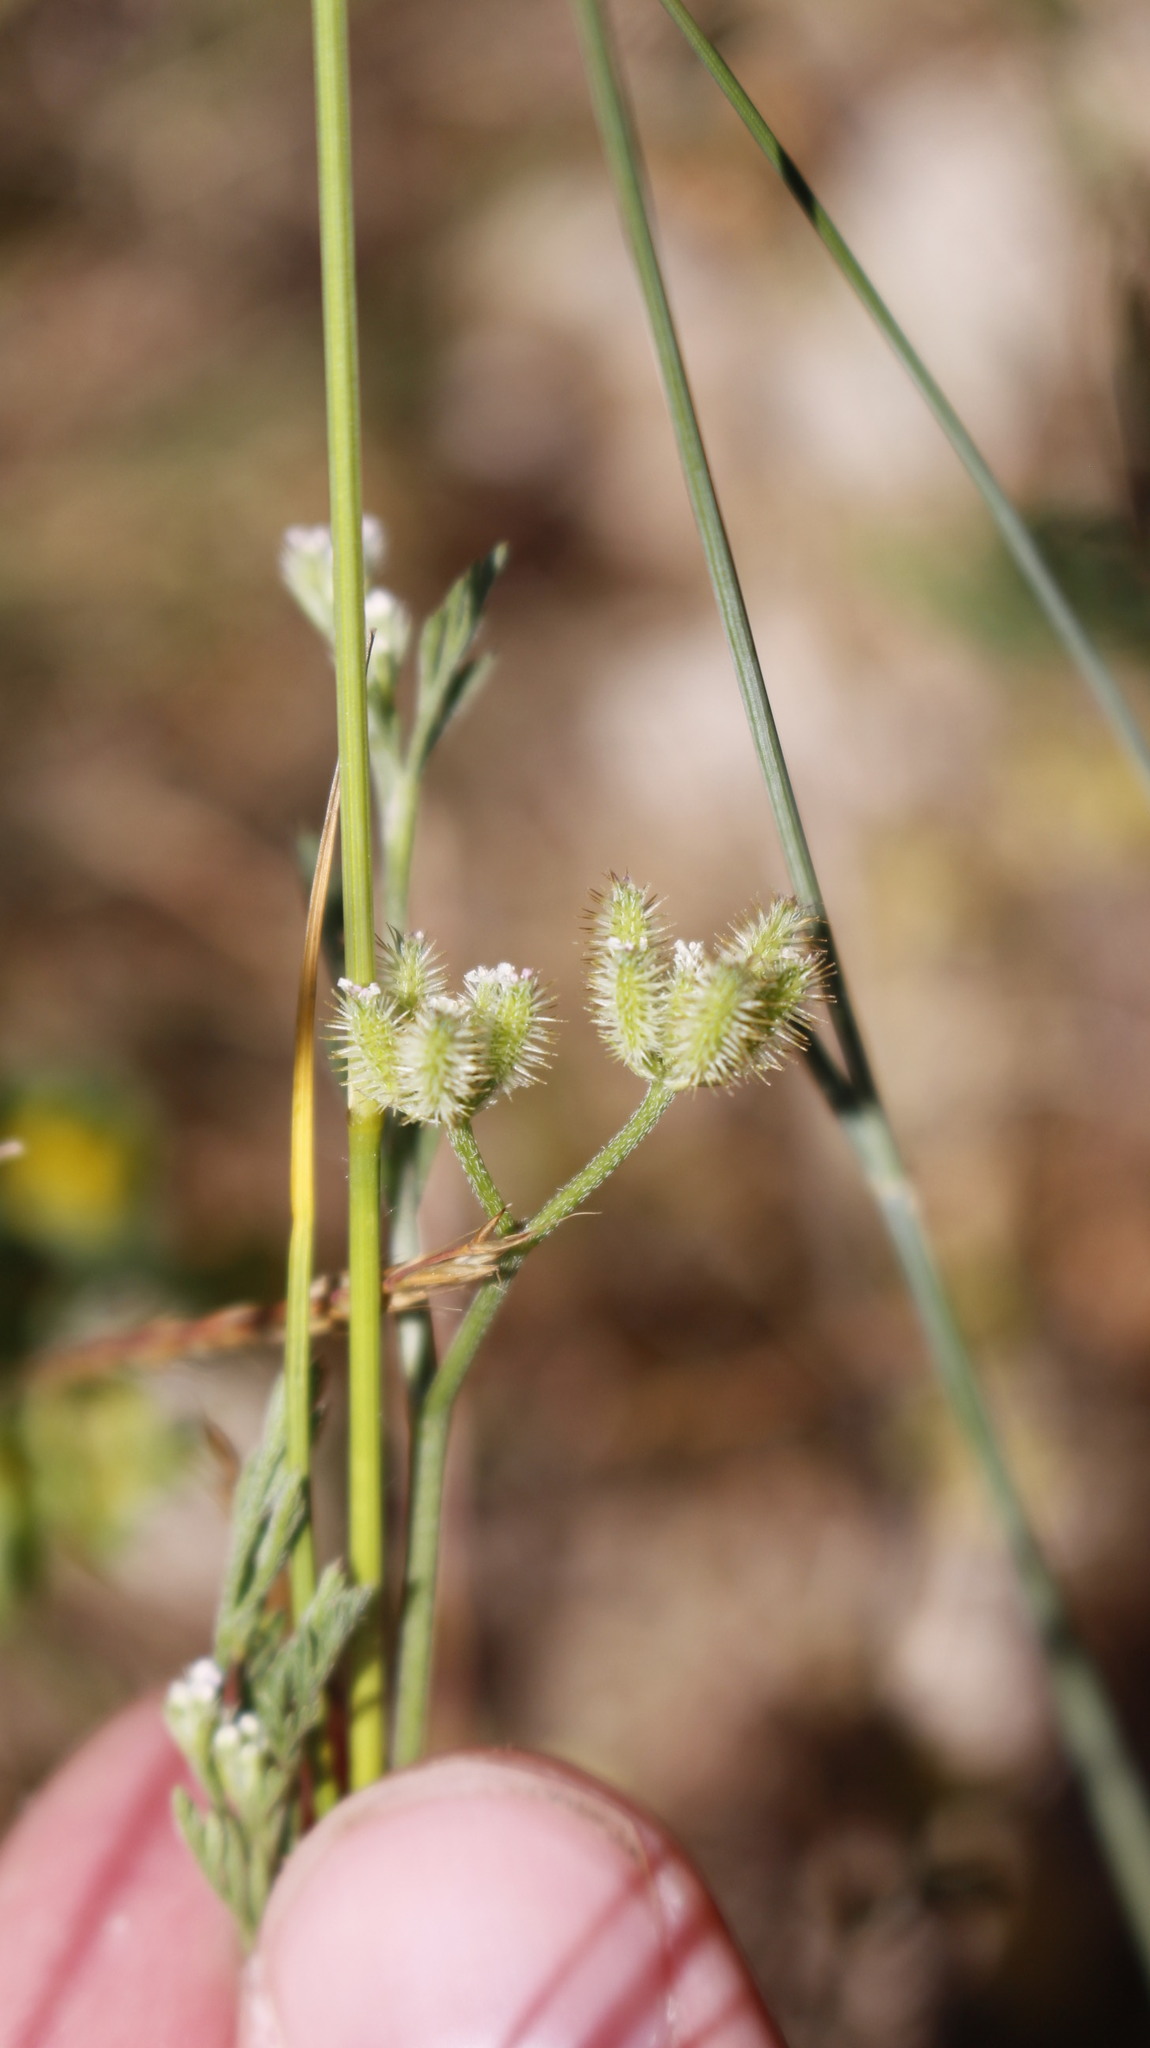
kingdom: Plantae
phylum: Tracheophyta
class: Magnoliopsida
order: Apiales
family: Apiaceae
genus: Torilis
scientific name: Torilis leptophylla
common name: Bristlefruit hedgeparsley
